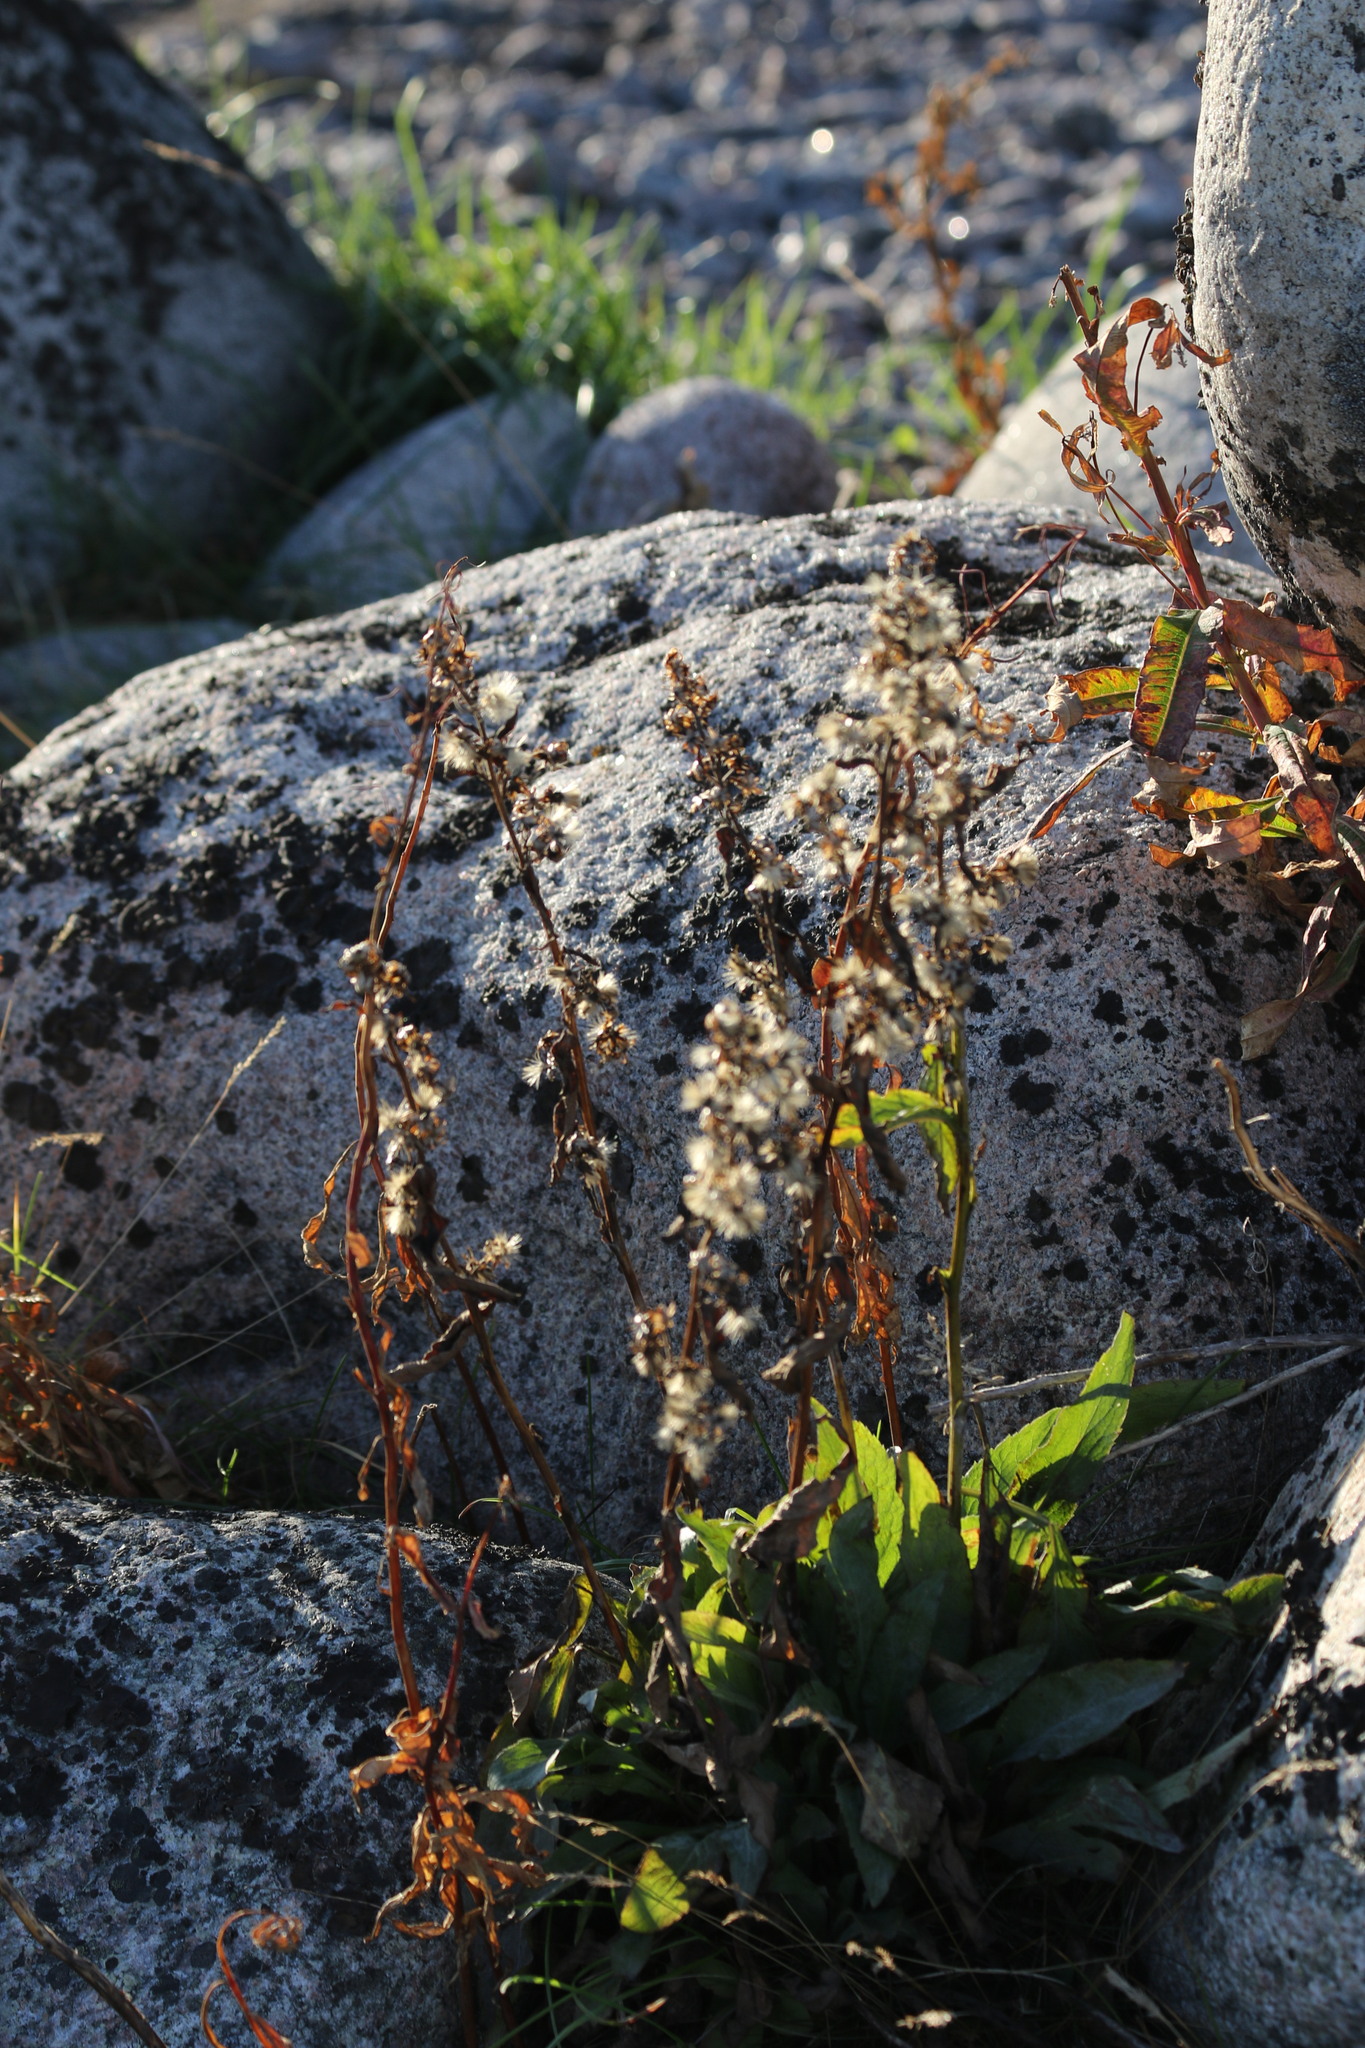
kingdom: Plantae
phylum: Tracheophyta
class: Magnoliopsida
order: Asterales
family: Asteraceae
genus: Solidago
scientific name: Solidago virgaurea
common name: Goldenrod
